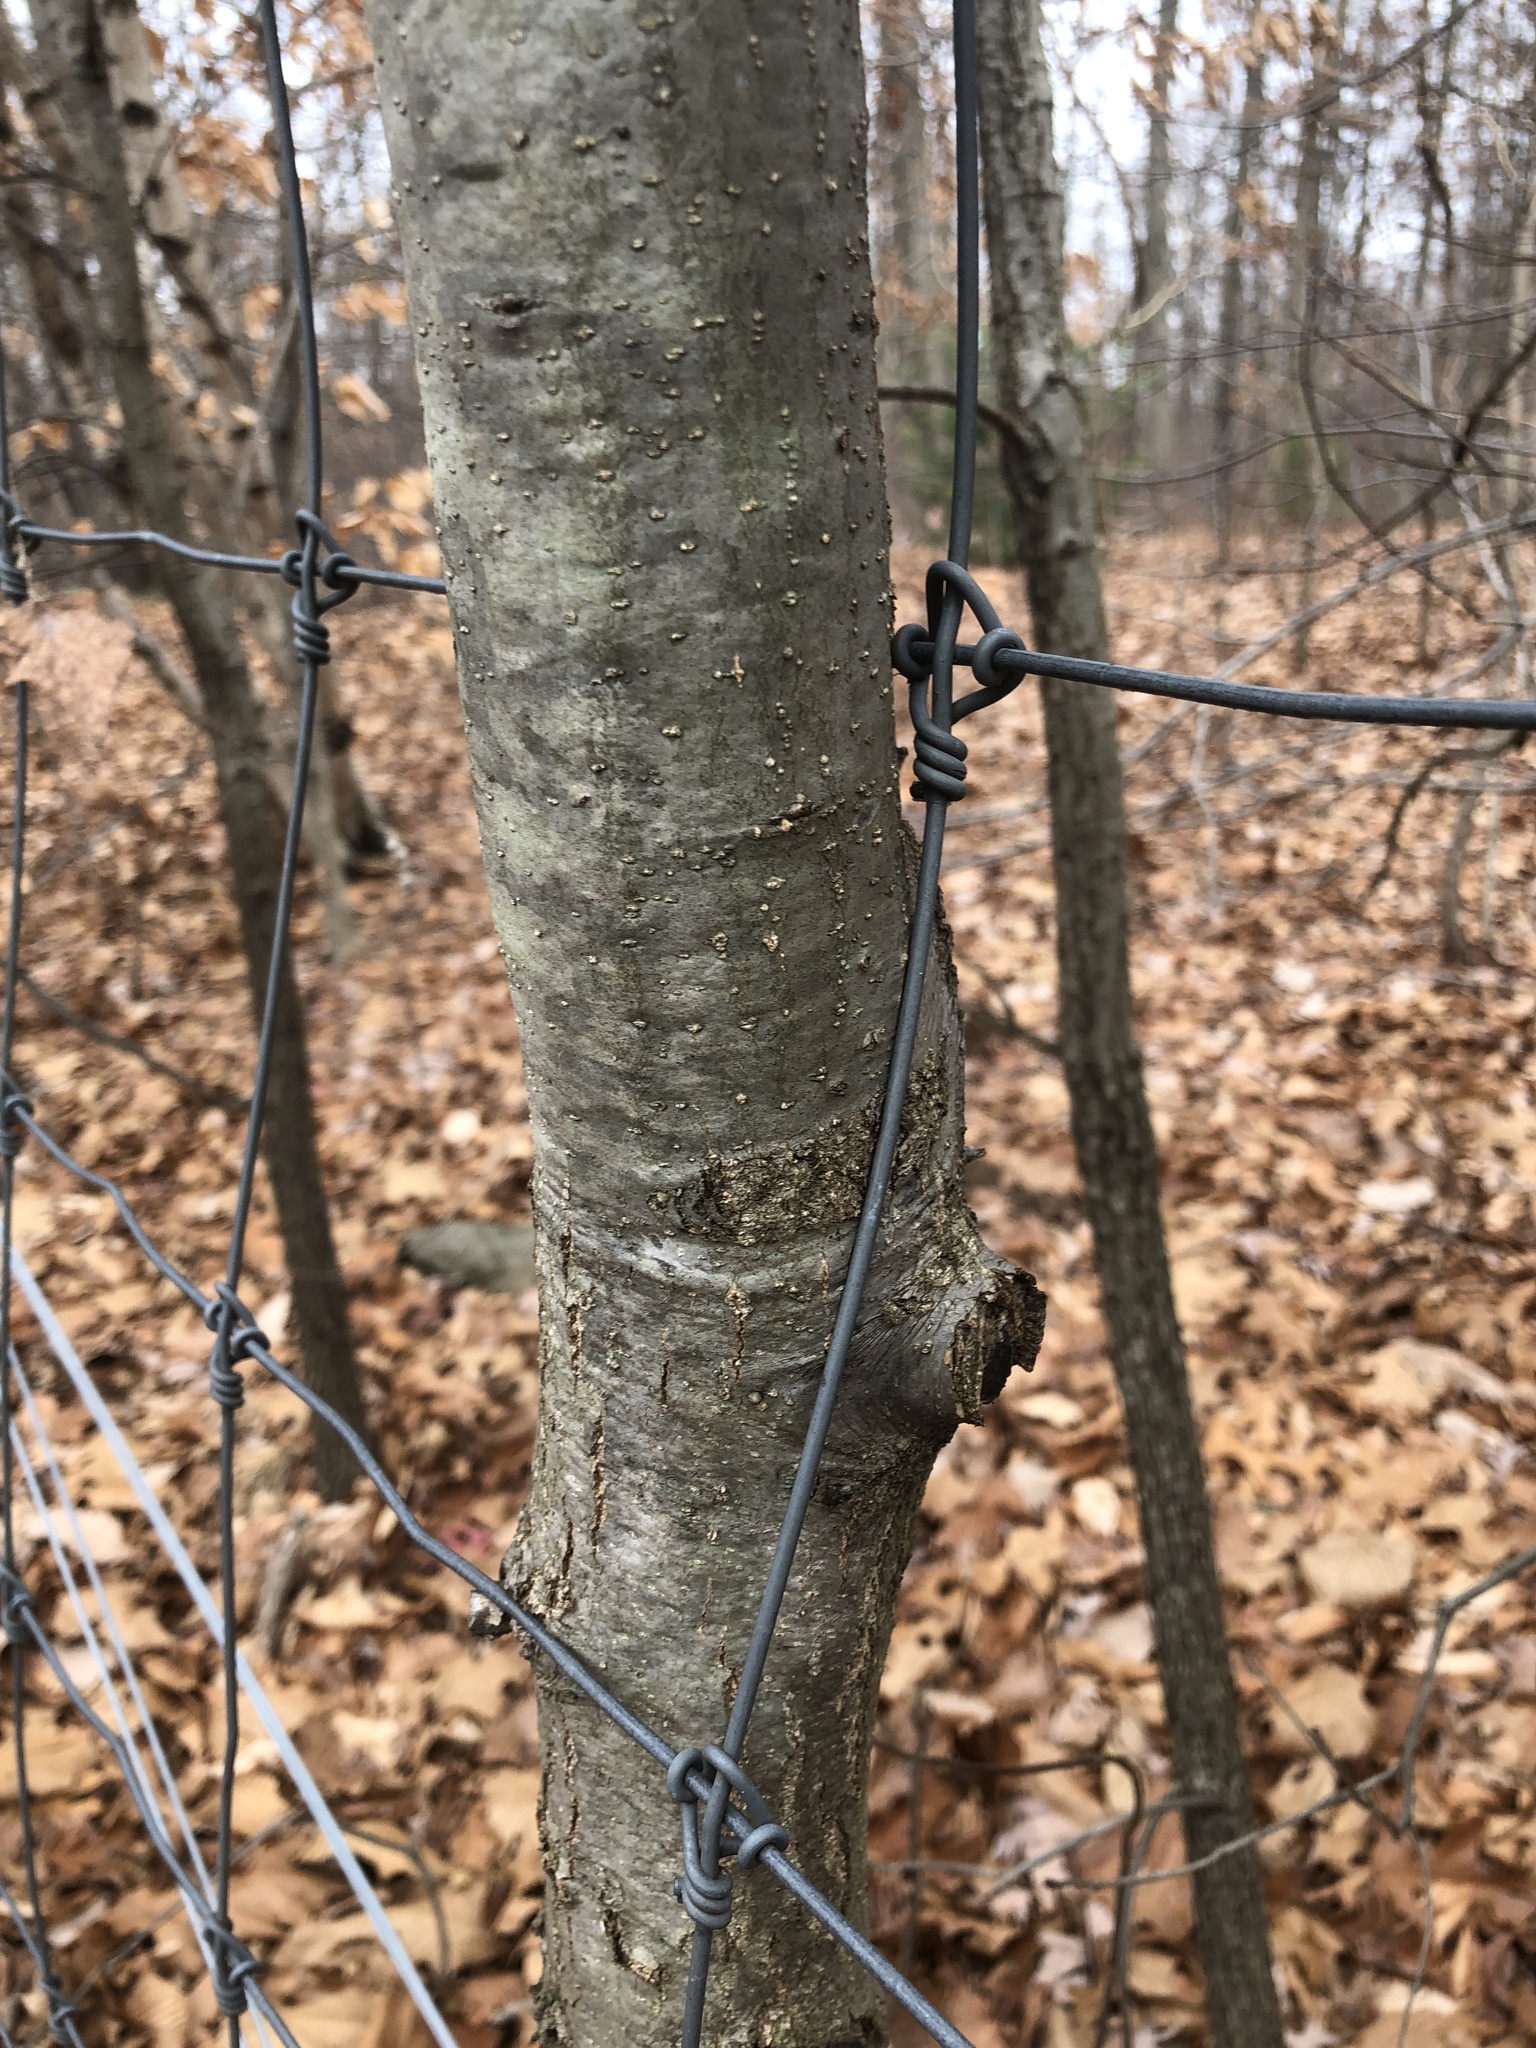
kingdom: Plantae
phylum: Tracheophyta
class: Magnoliopsida
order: Fagales
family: Fagaceae
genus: Quercus
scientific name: Quercus rubra
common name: Red oak
